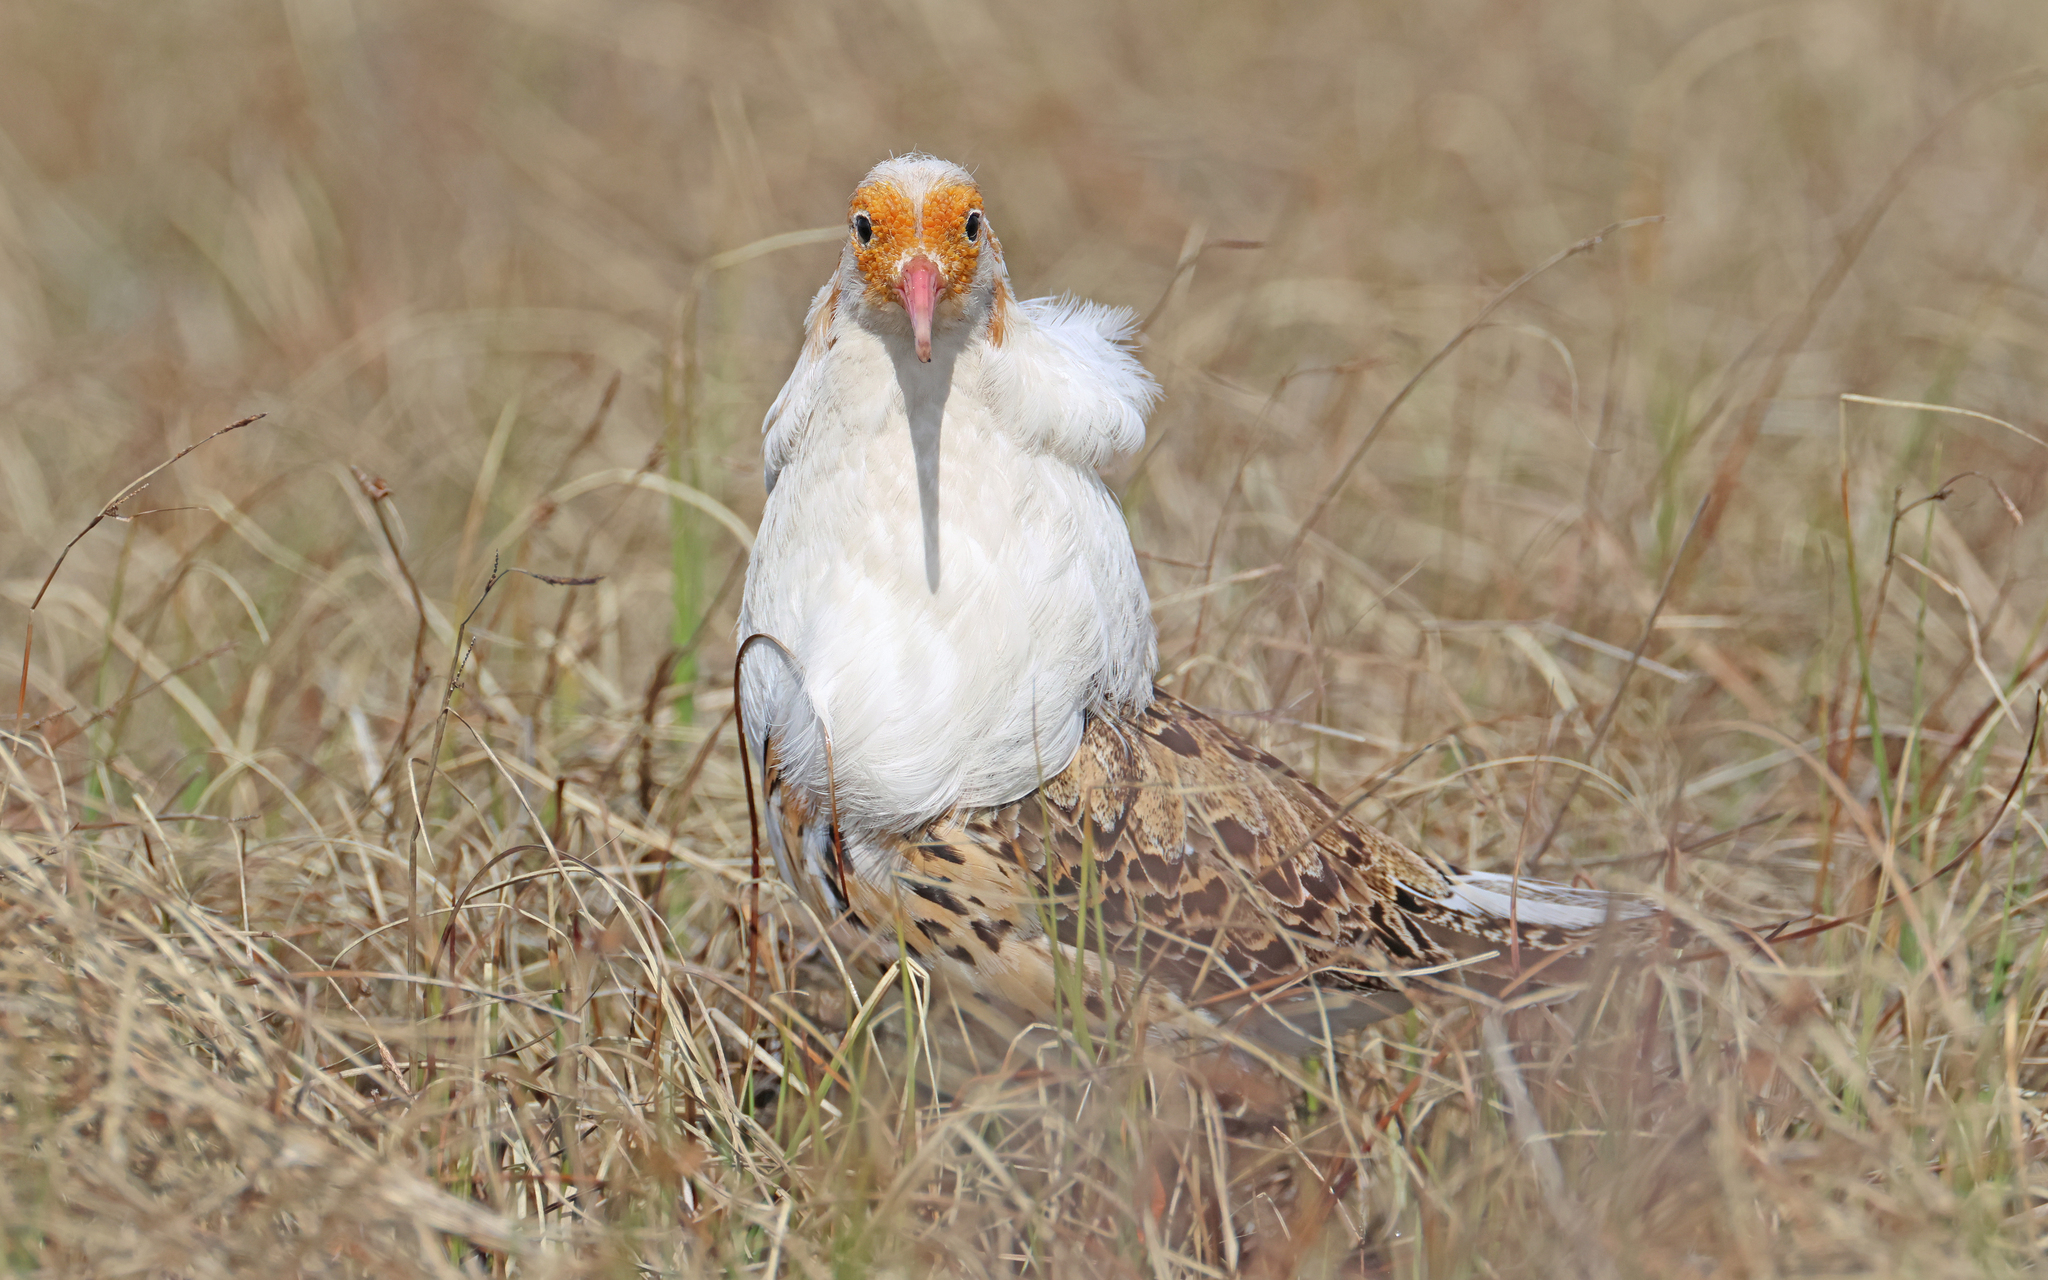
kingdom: Animalia
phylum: Chordata
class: Aves
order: Charadriiformes
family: Scolopacidae
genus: Calidris
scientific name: Calidris pugnax
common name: Ruff
